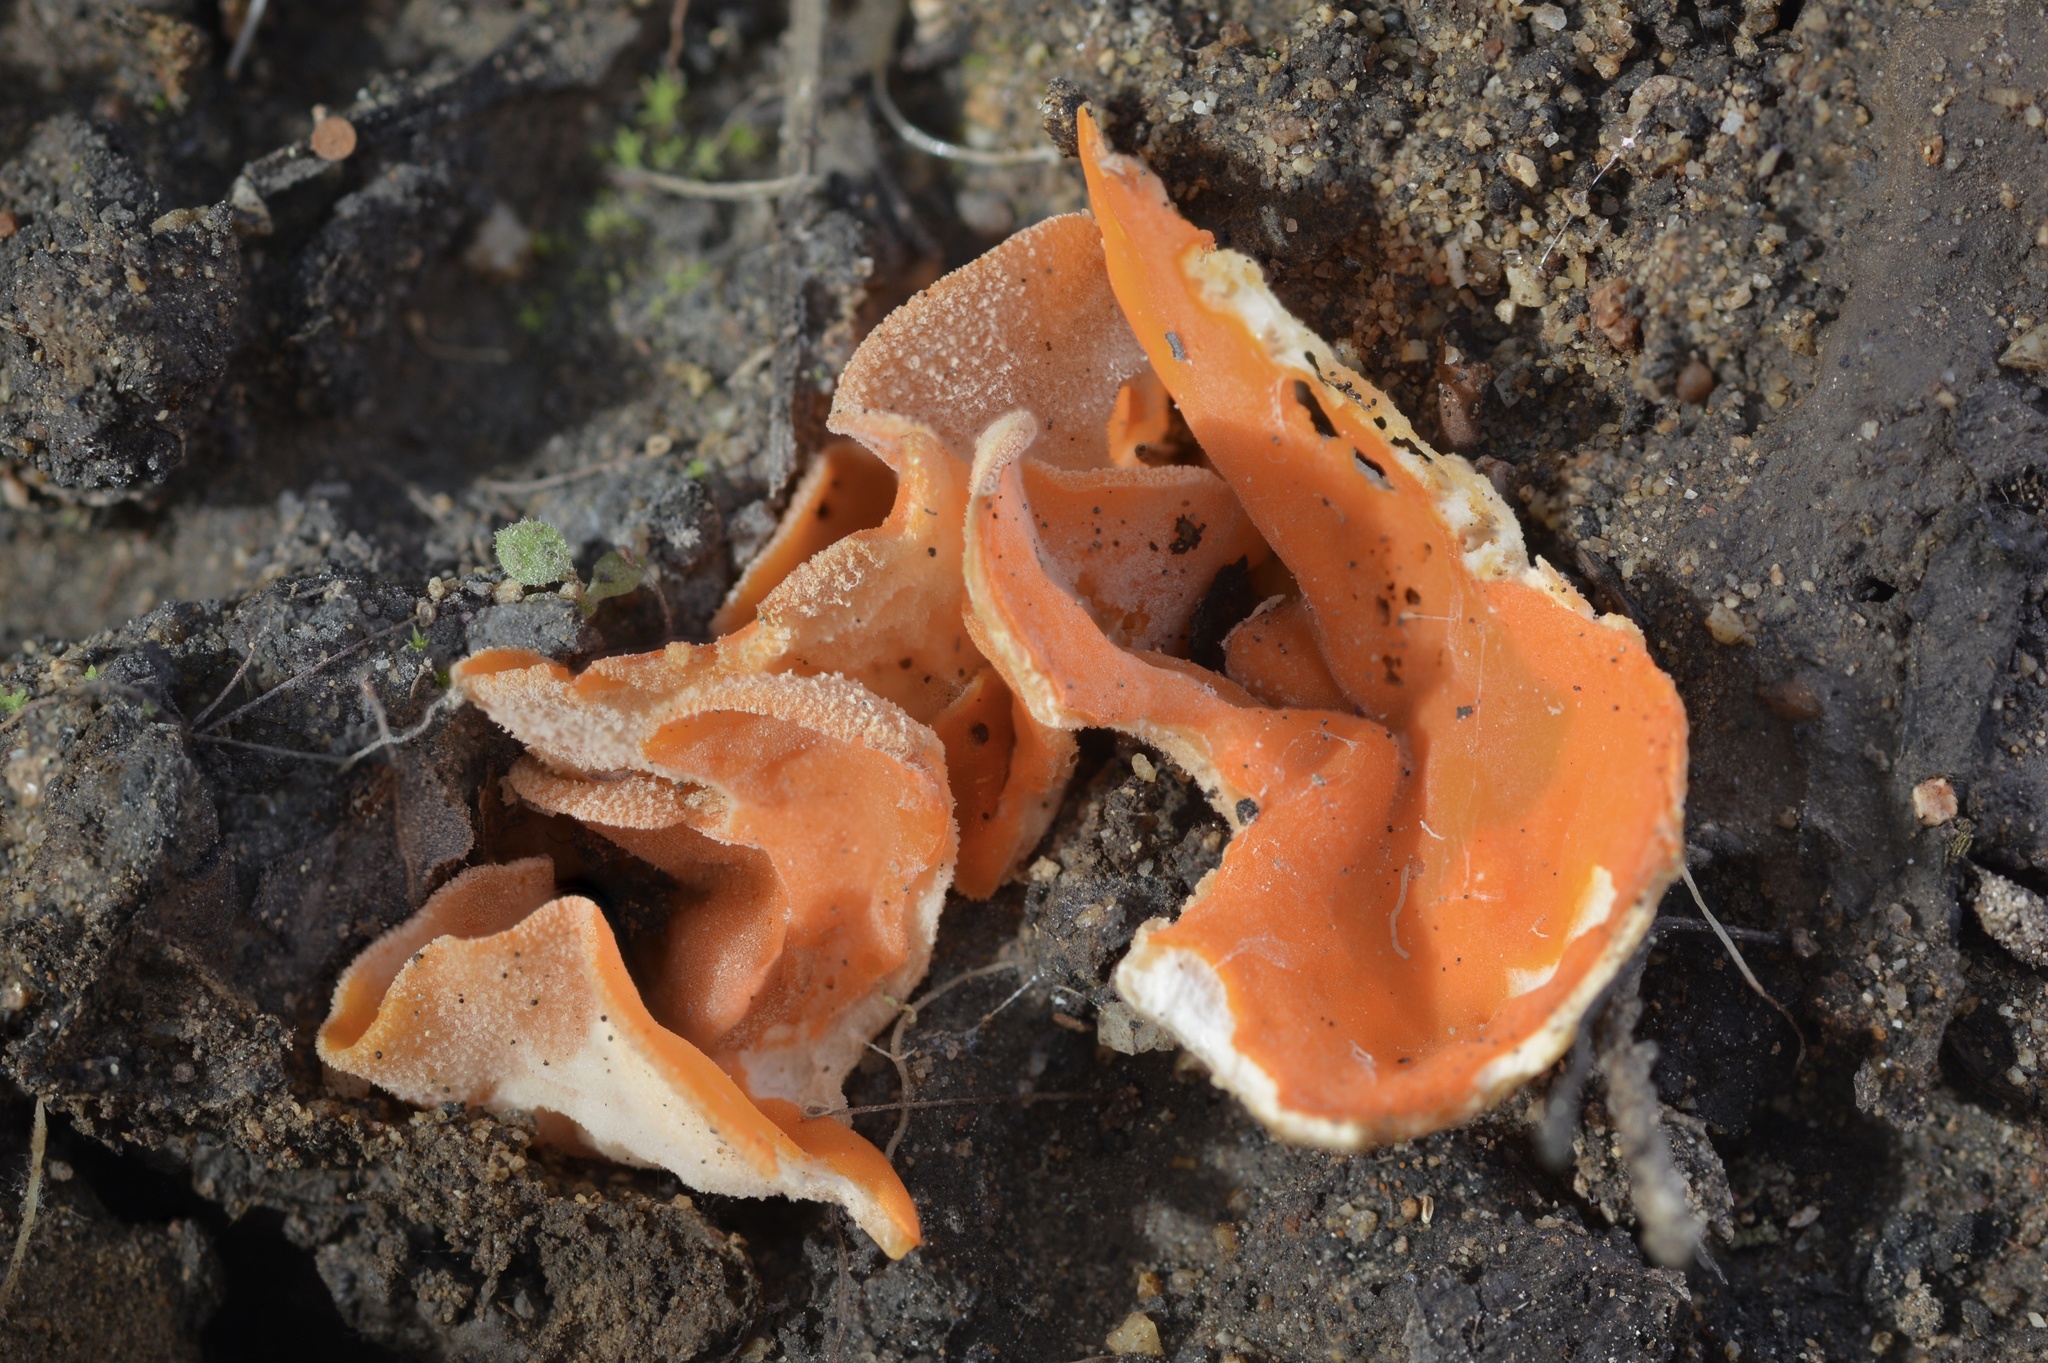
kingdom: Fungi
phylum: Ascomycota
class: Pezizomycetes
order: Pezizales
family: Pyronemataceae
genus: Aleuria
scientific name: Aleuria aurantia
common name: Orange peel fungus
